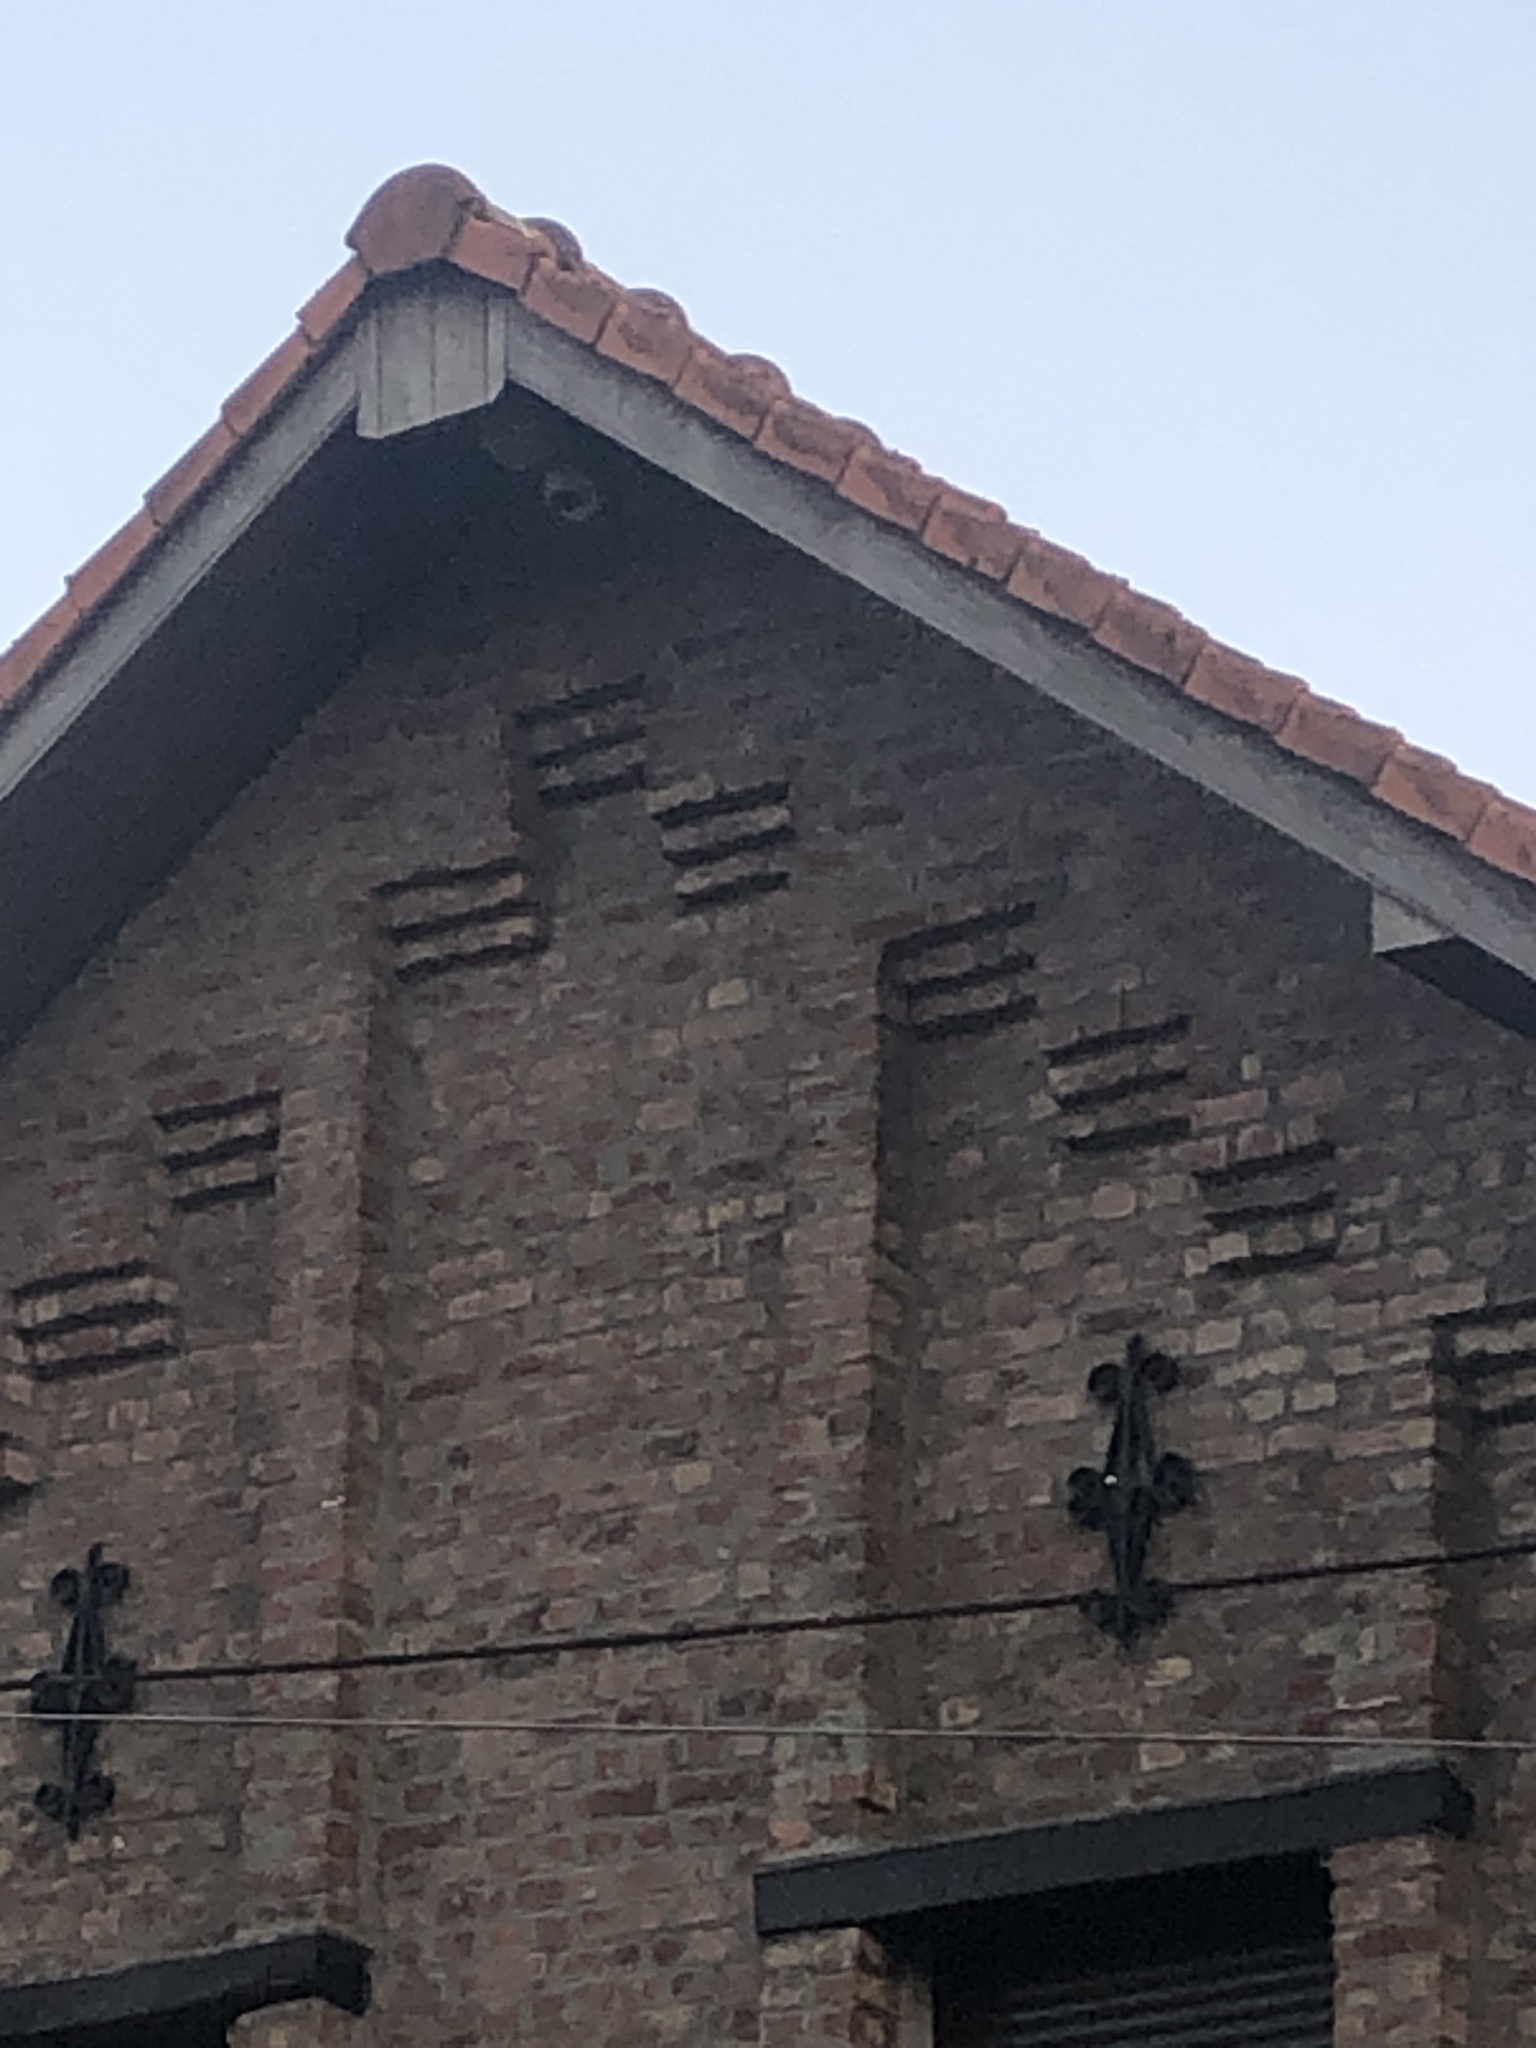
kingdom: Animalia
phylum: Arthropoda
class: Insecta
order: Hymenoptera
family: Vespidae
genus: Vespa
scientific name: Vespa velutina
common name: Asian hornet
